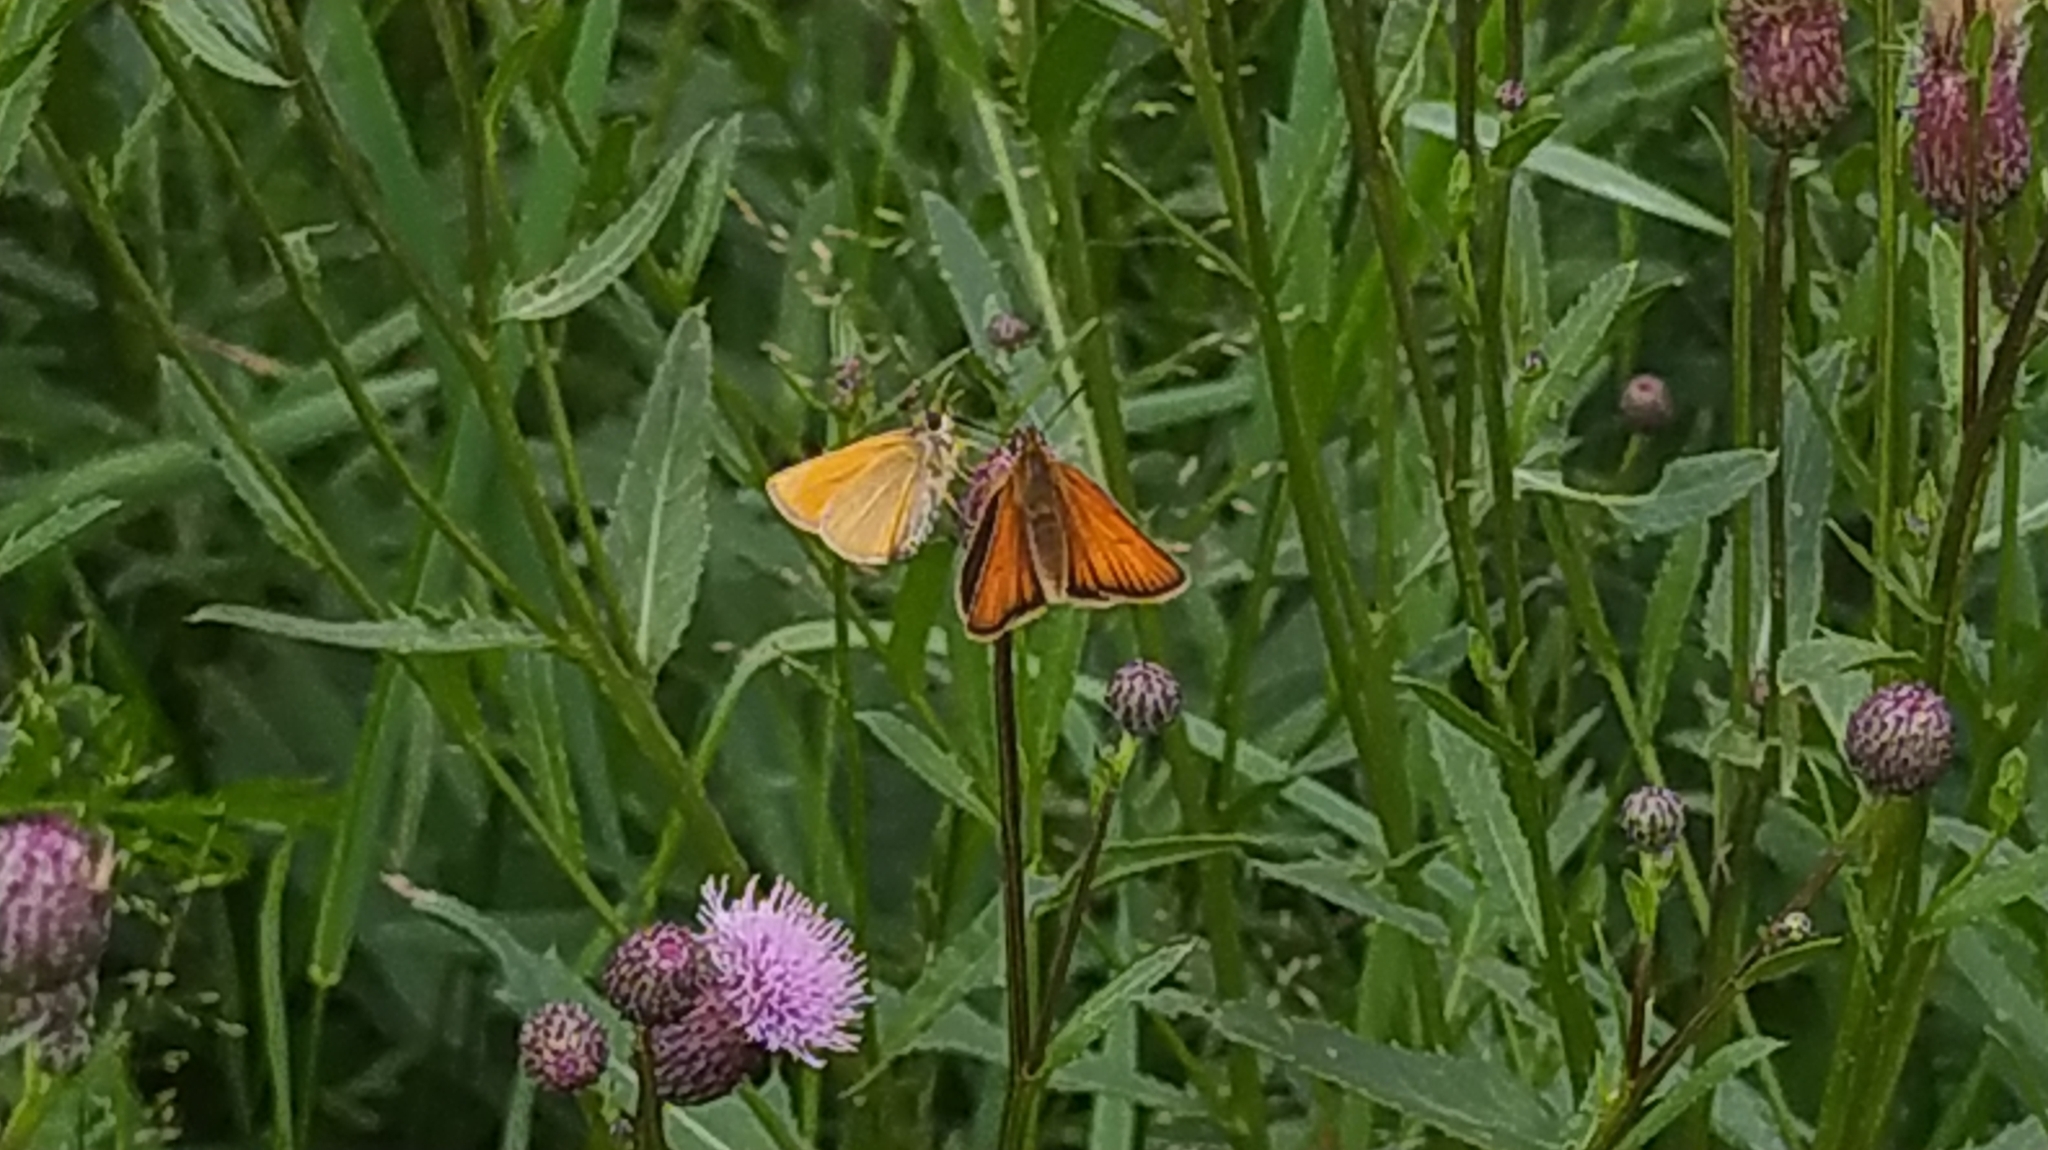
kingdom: Animalia
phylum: Arthropoda
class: Insecta
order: Lepidoptera
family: Hesperiidae
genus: Thymelicus
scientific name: Thymelicus lineola
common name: Essex skipper
